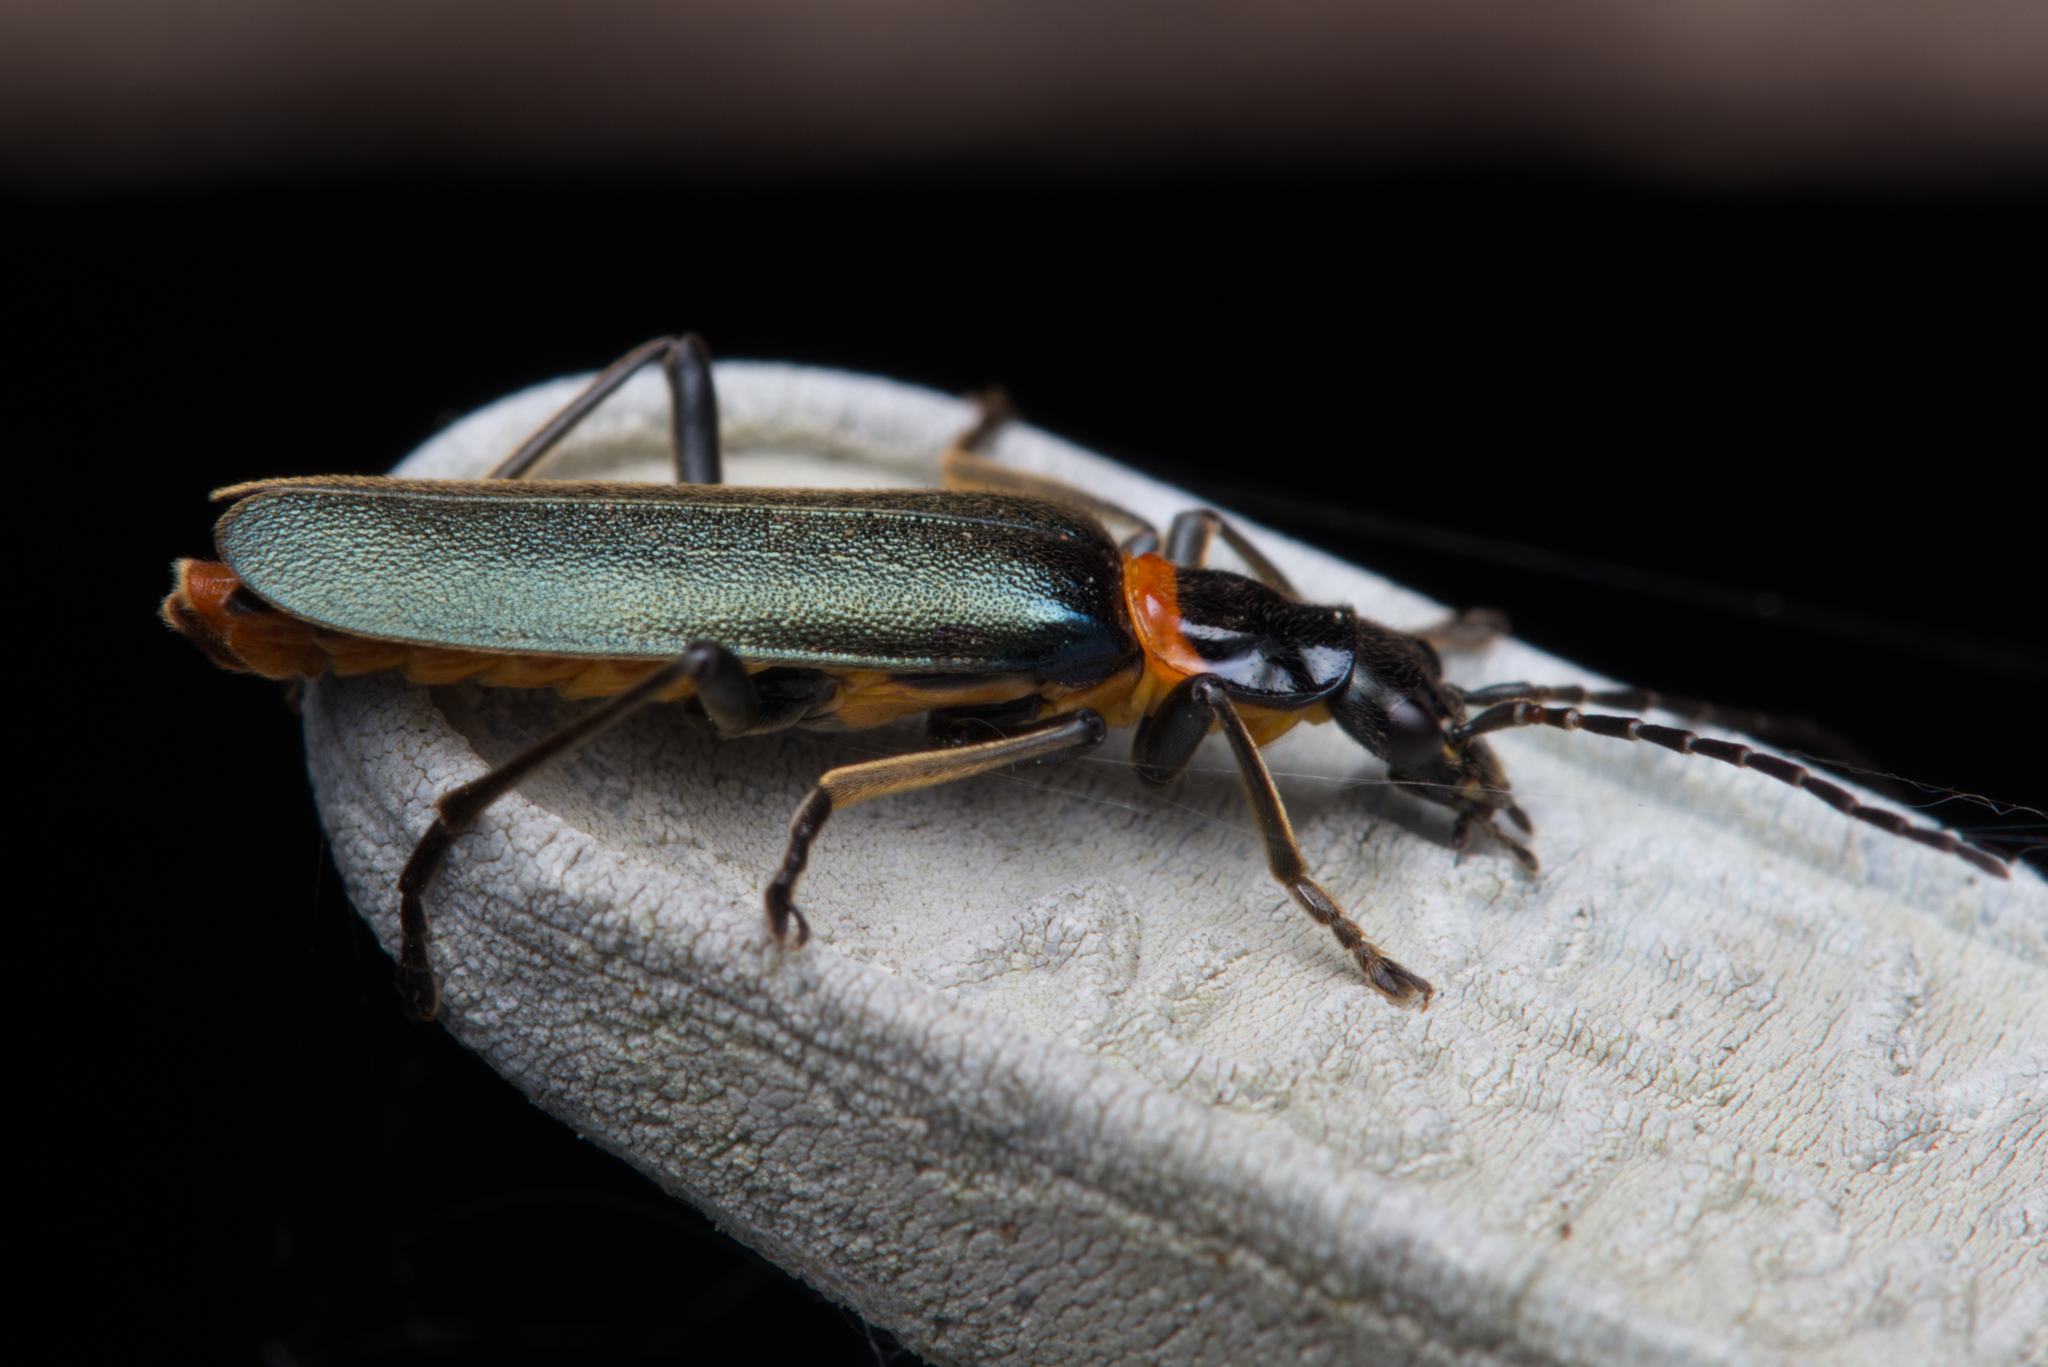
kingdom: Animalia
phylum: Arthropoda
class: Insecta
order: Coleoptera
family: Cantharidae
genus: Chauliognathus
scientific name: Chauliognathus
